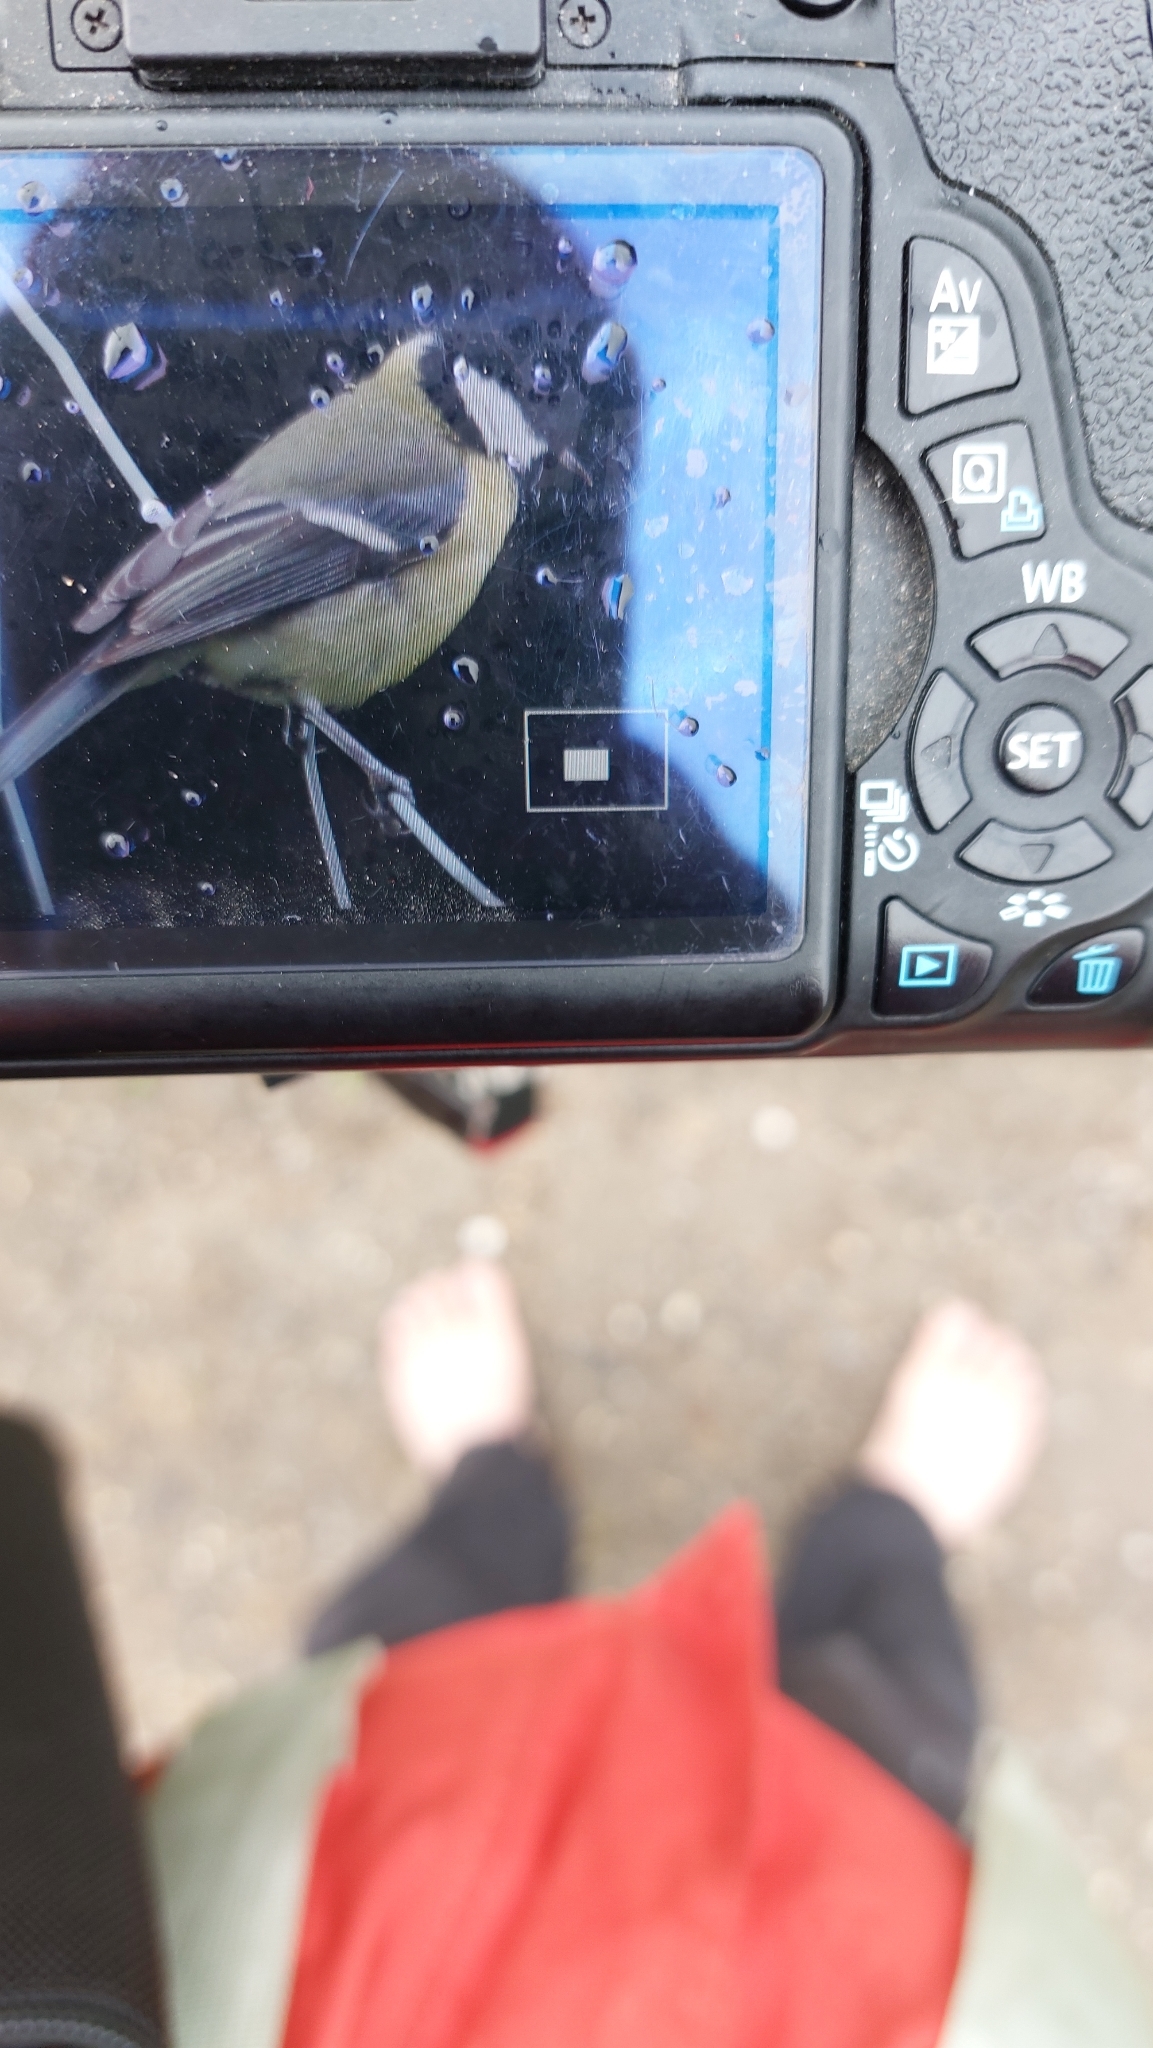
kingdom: Animalia
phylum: Chordata
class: Aves
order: Passeriformes
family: Paridae
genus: Parus
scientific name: Parus major
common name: Great tit
